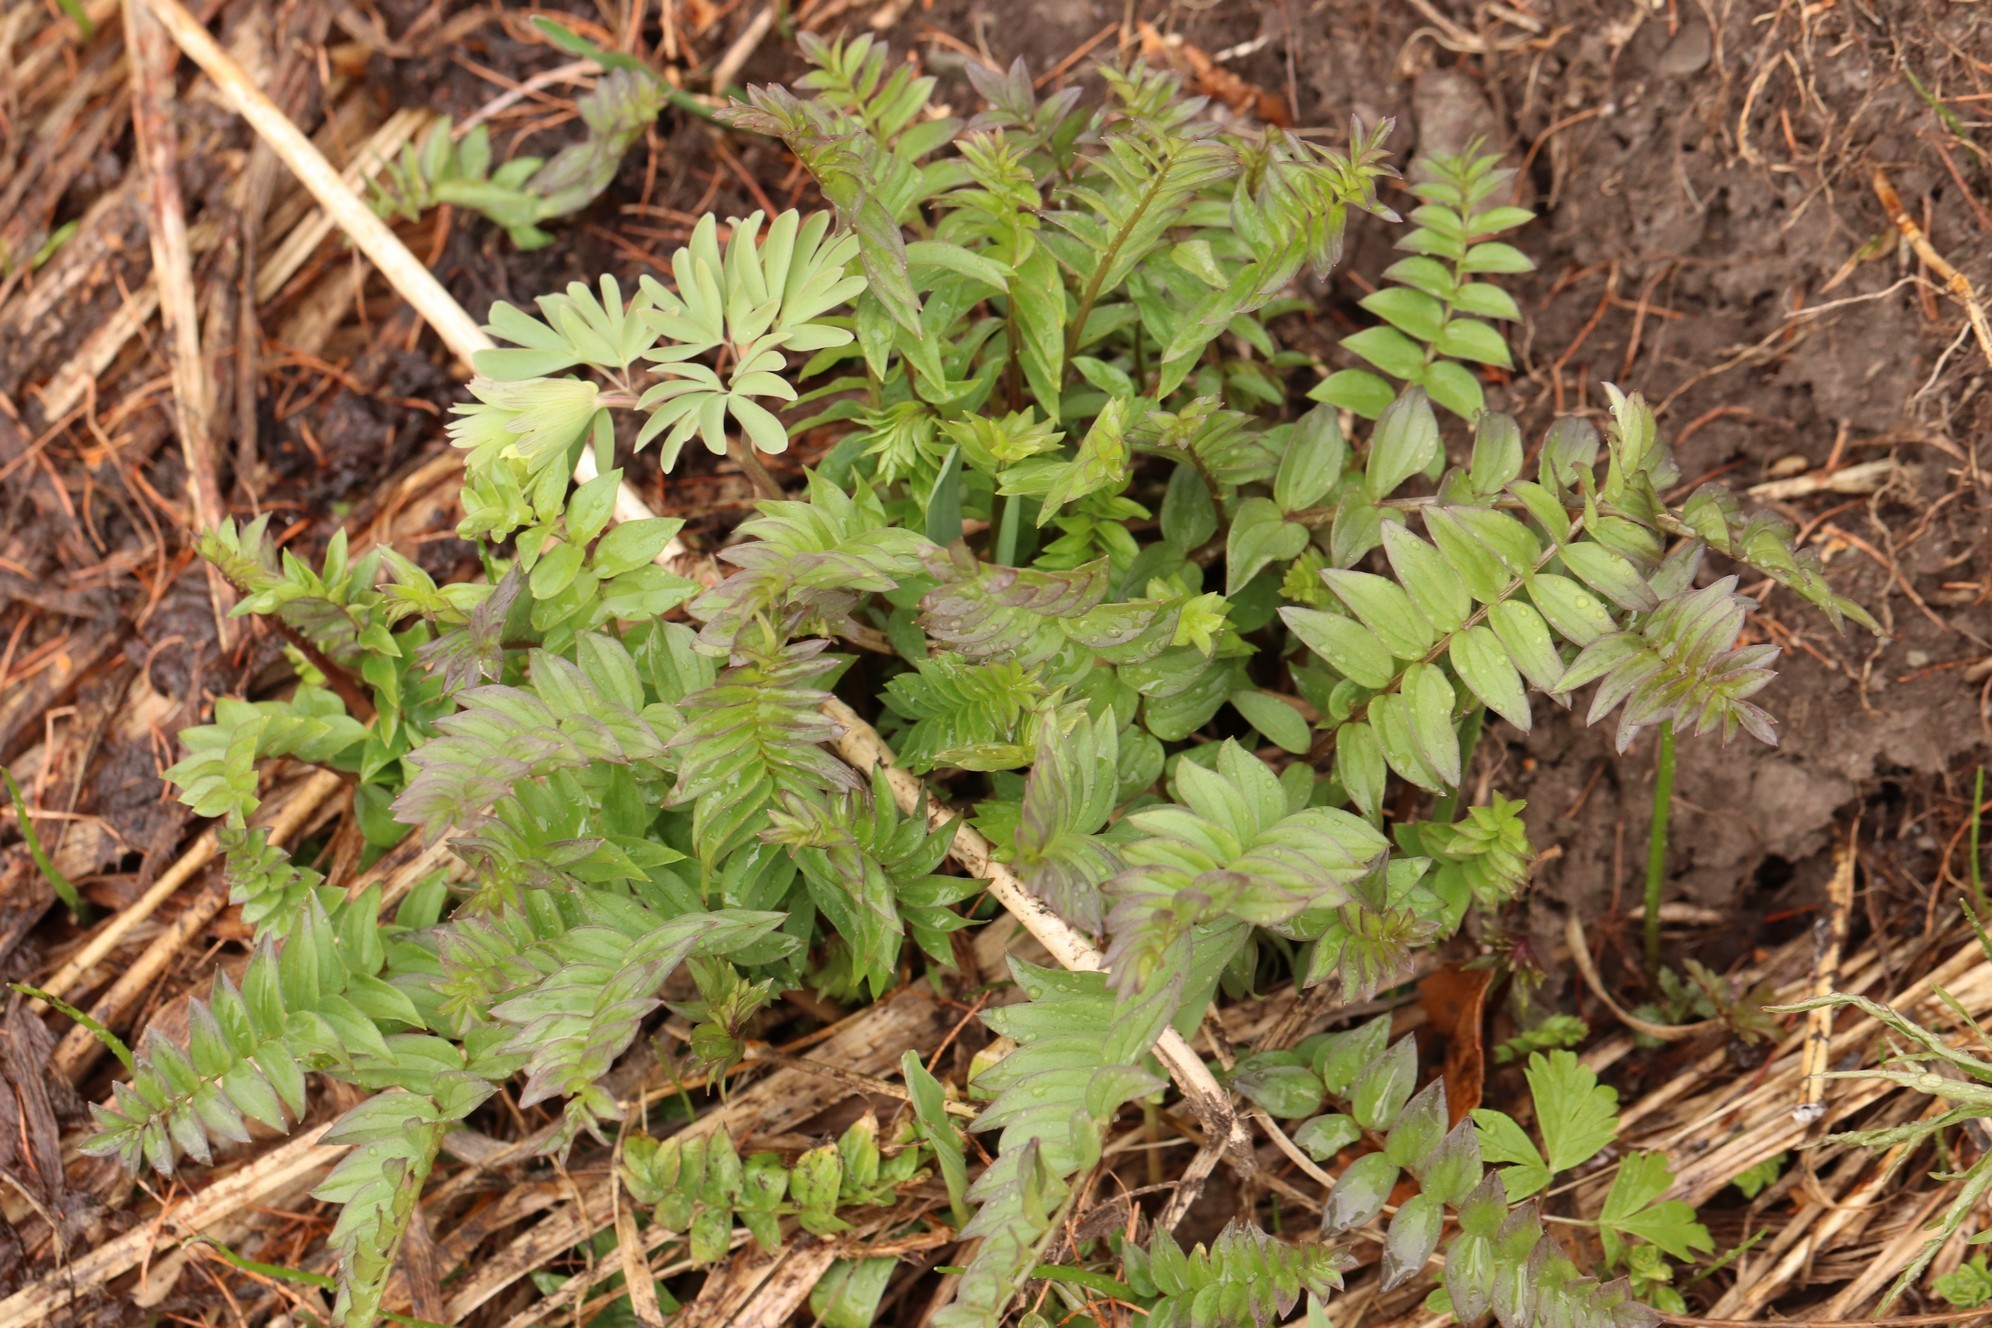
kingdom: Plantae
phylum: Tracheophyta
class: Magnoliopsida
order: Ericales
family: Polemoniaceae
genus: Polemonium
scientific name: Polemonium caeruleum
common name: Jacob's-ladder
